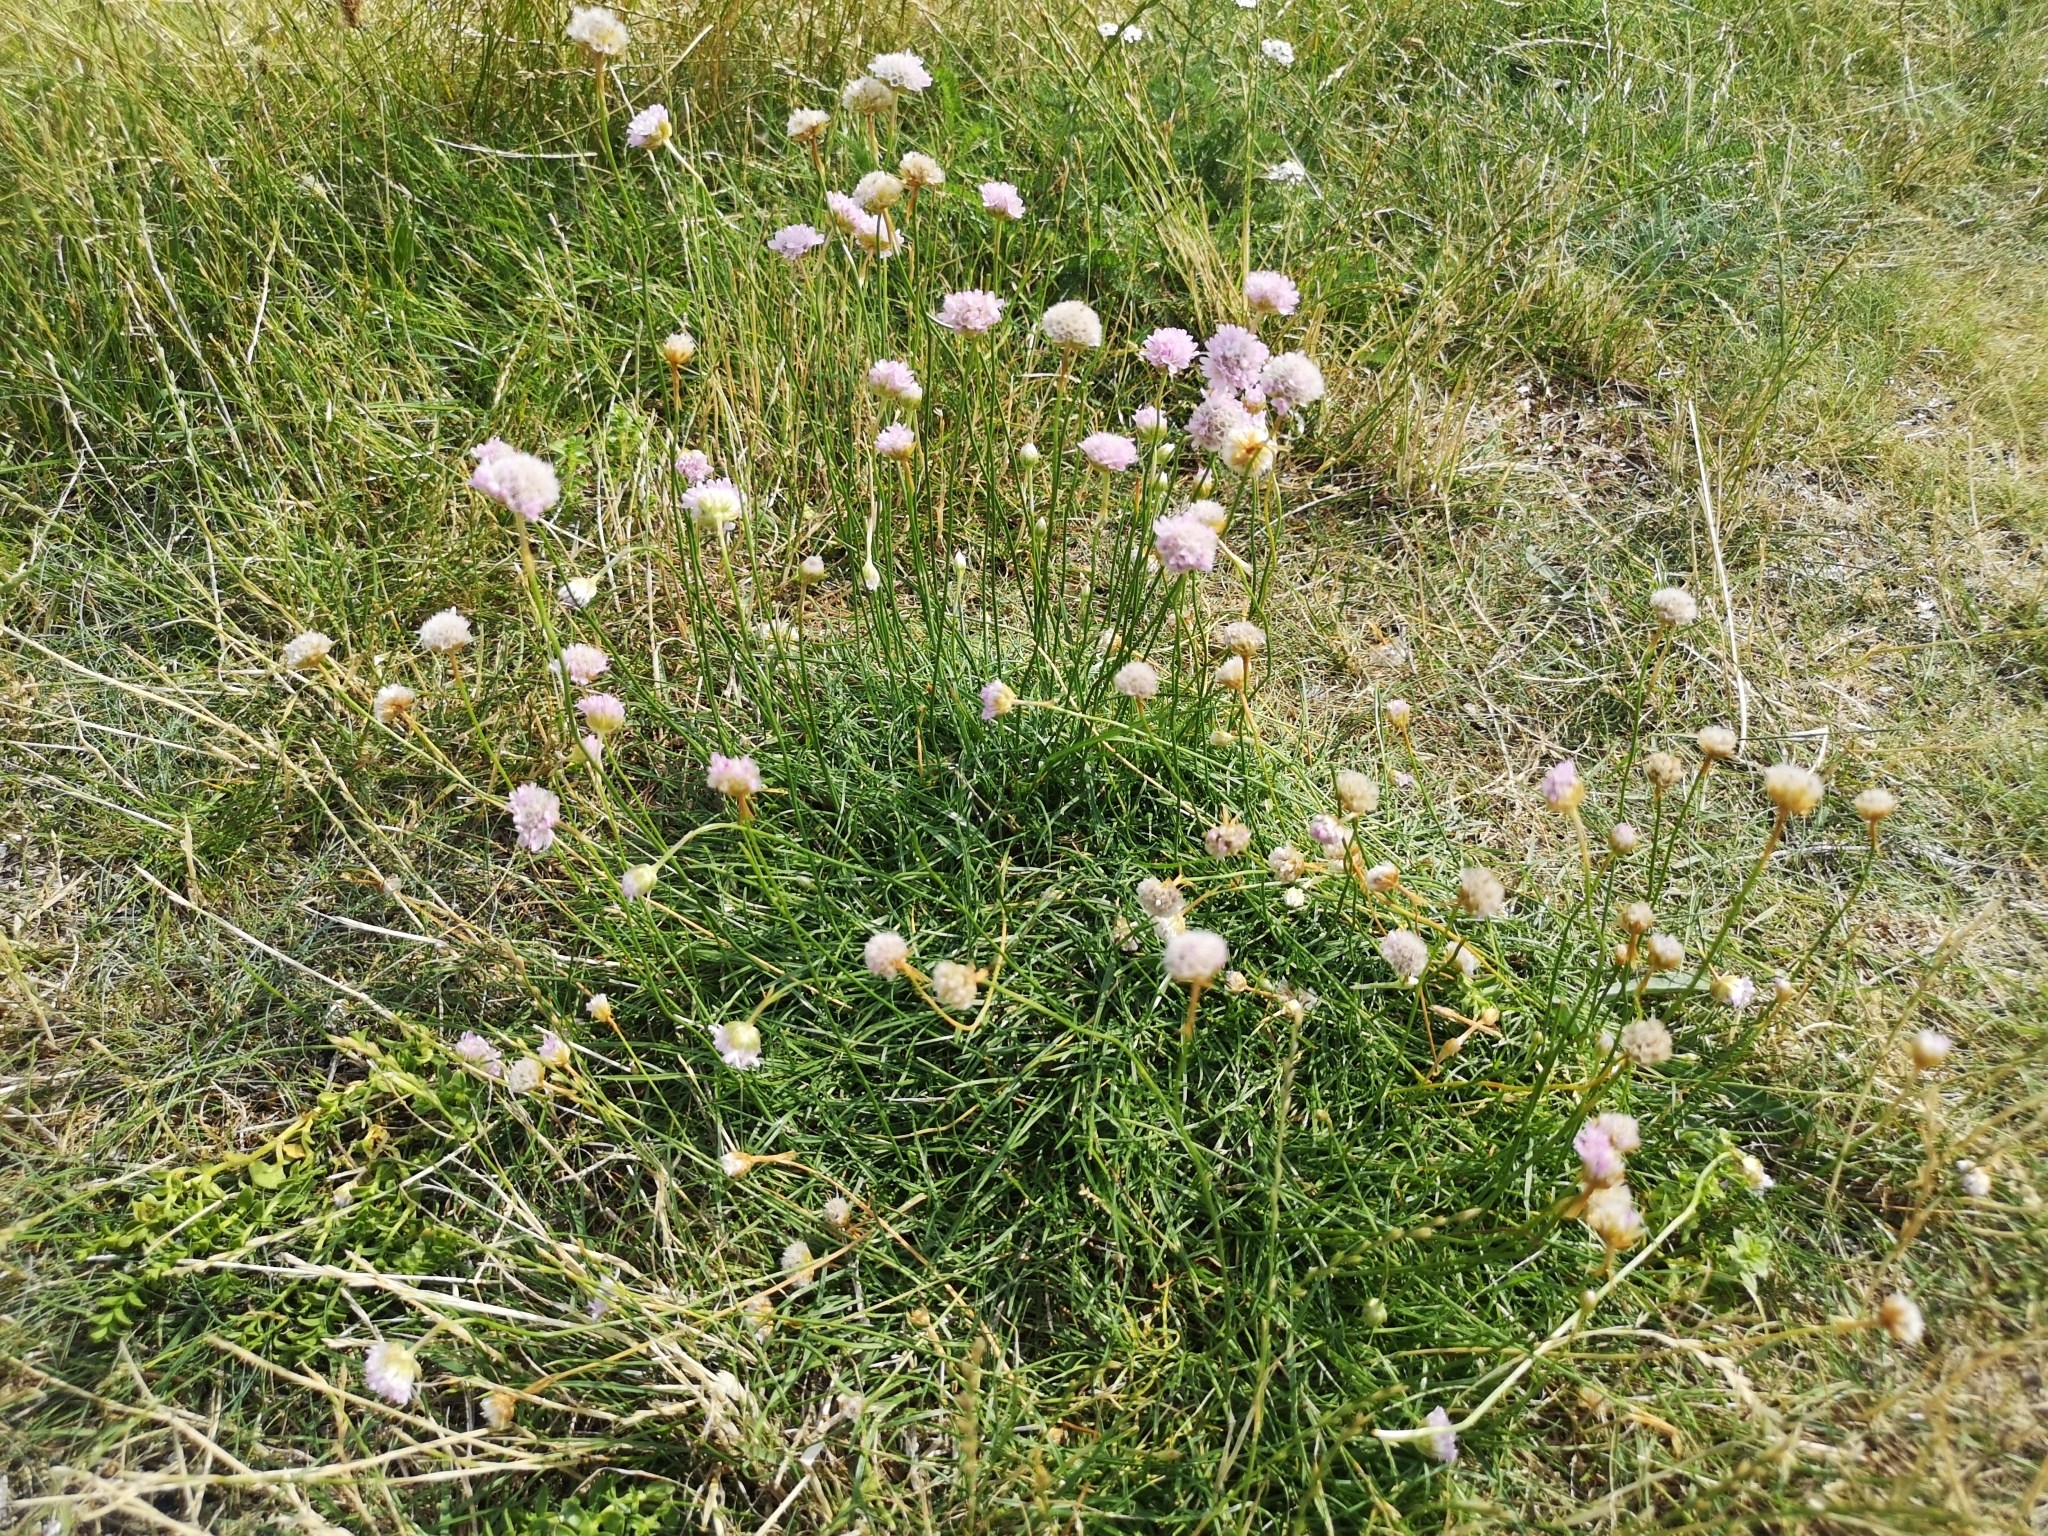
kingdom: Plantae
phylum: Tracheophyta
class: Magnoliopsida
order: Caryophyllales
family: Plumbaginaceae
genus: Armeria
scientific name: Armeria maritima
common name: Thrift
